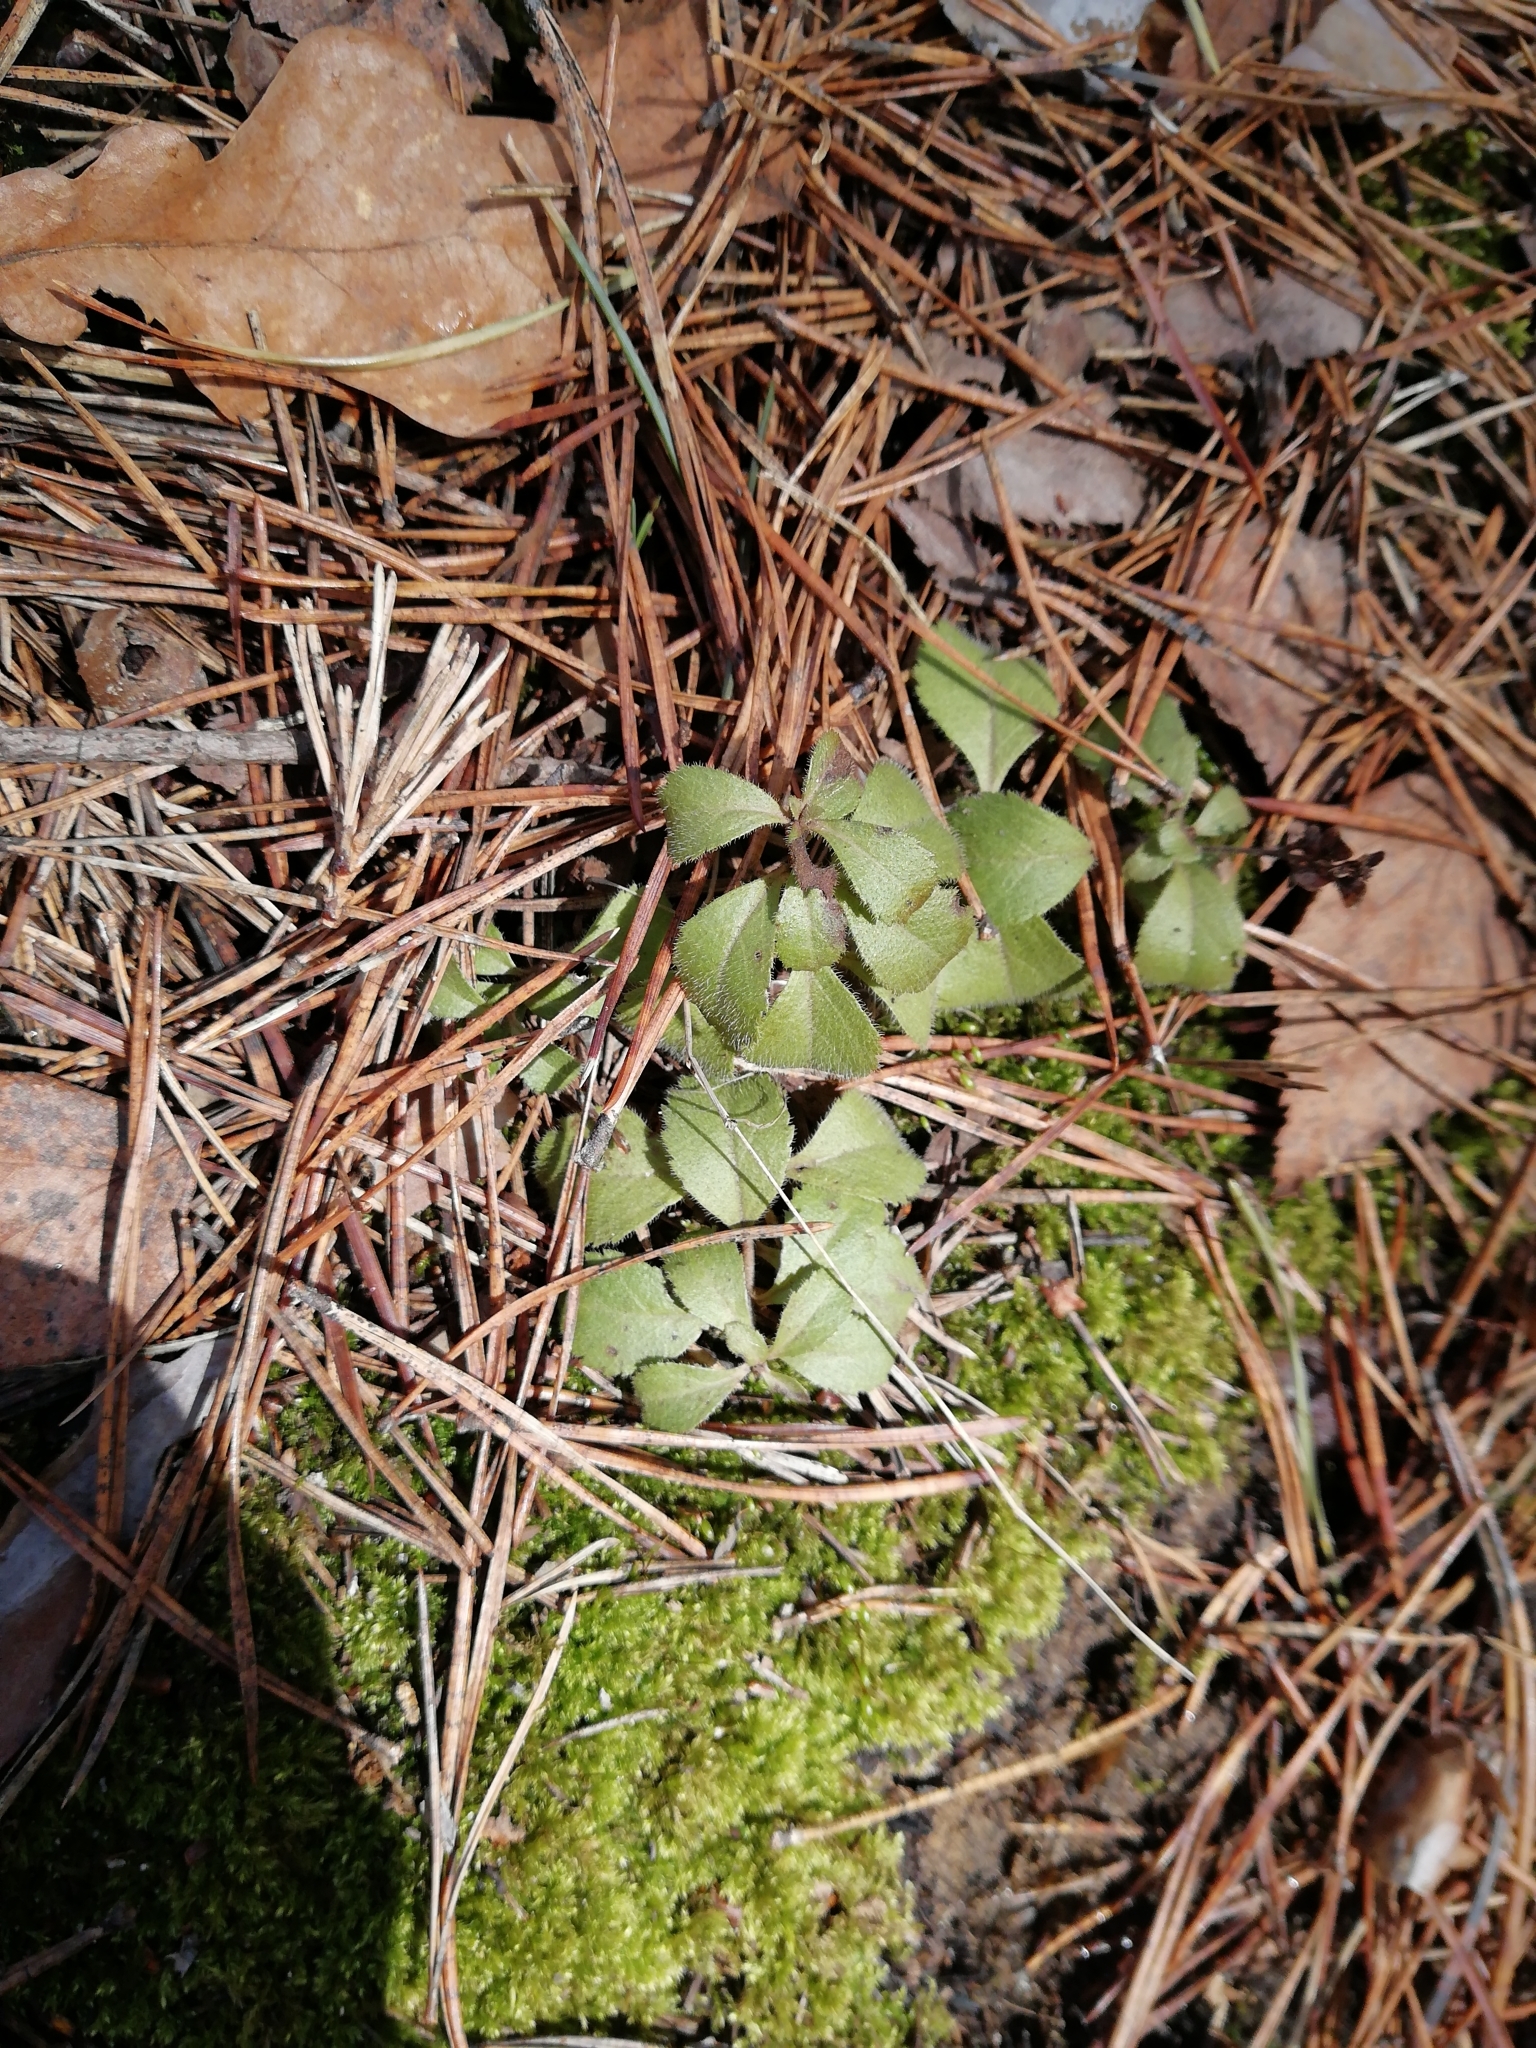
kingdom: Plantae
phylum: Tracheophyta
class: Magnoliopsida
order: Lamiales
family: Plantaginaceae
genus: Veronica
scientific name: Veronica officinalis
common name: Common speedwell
